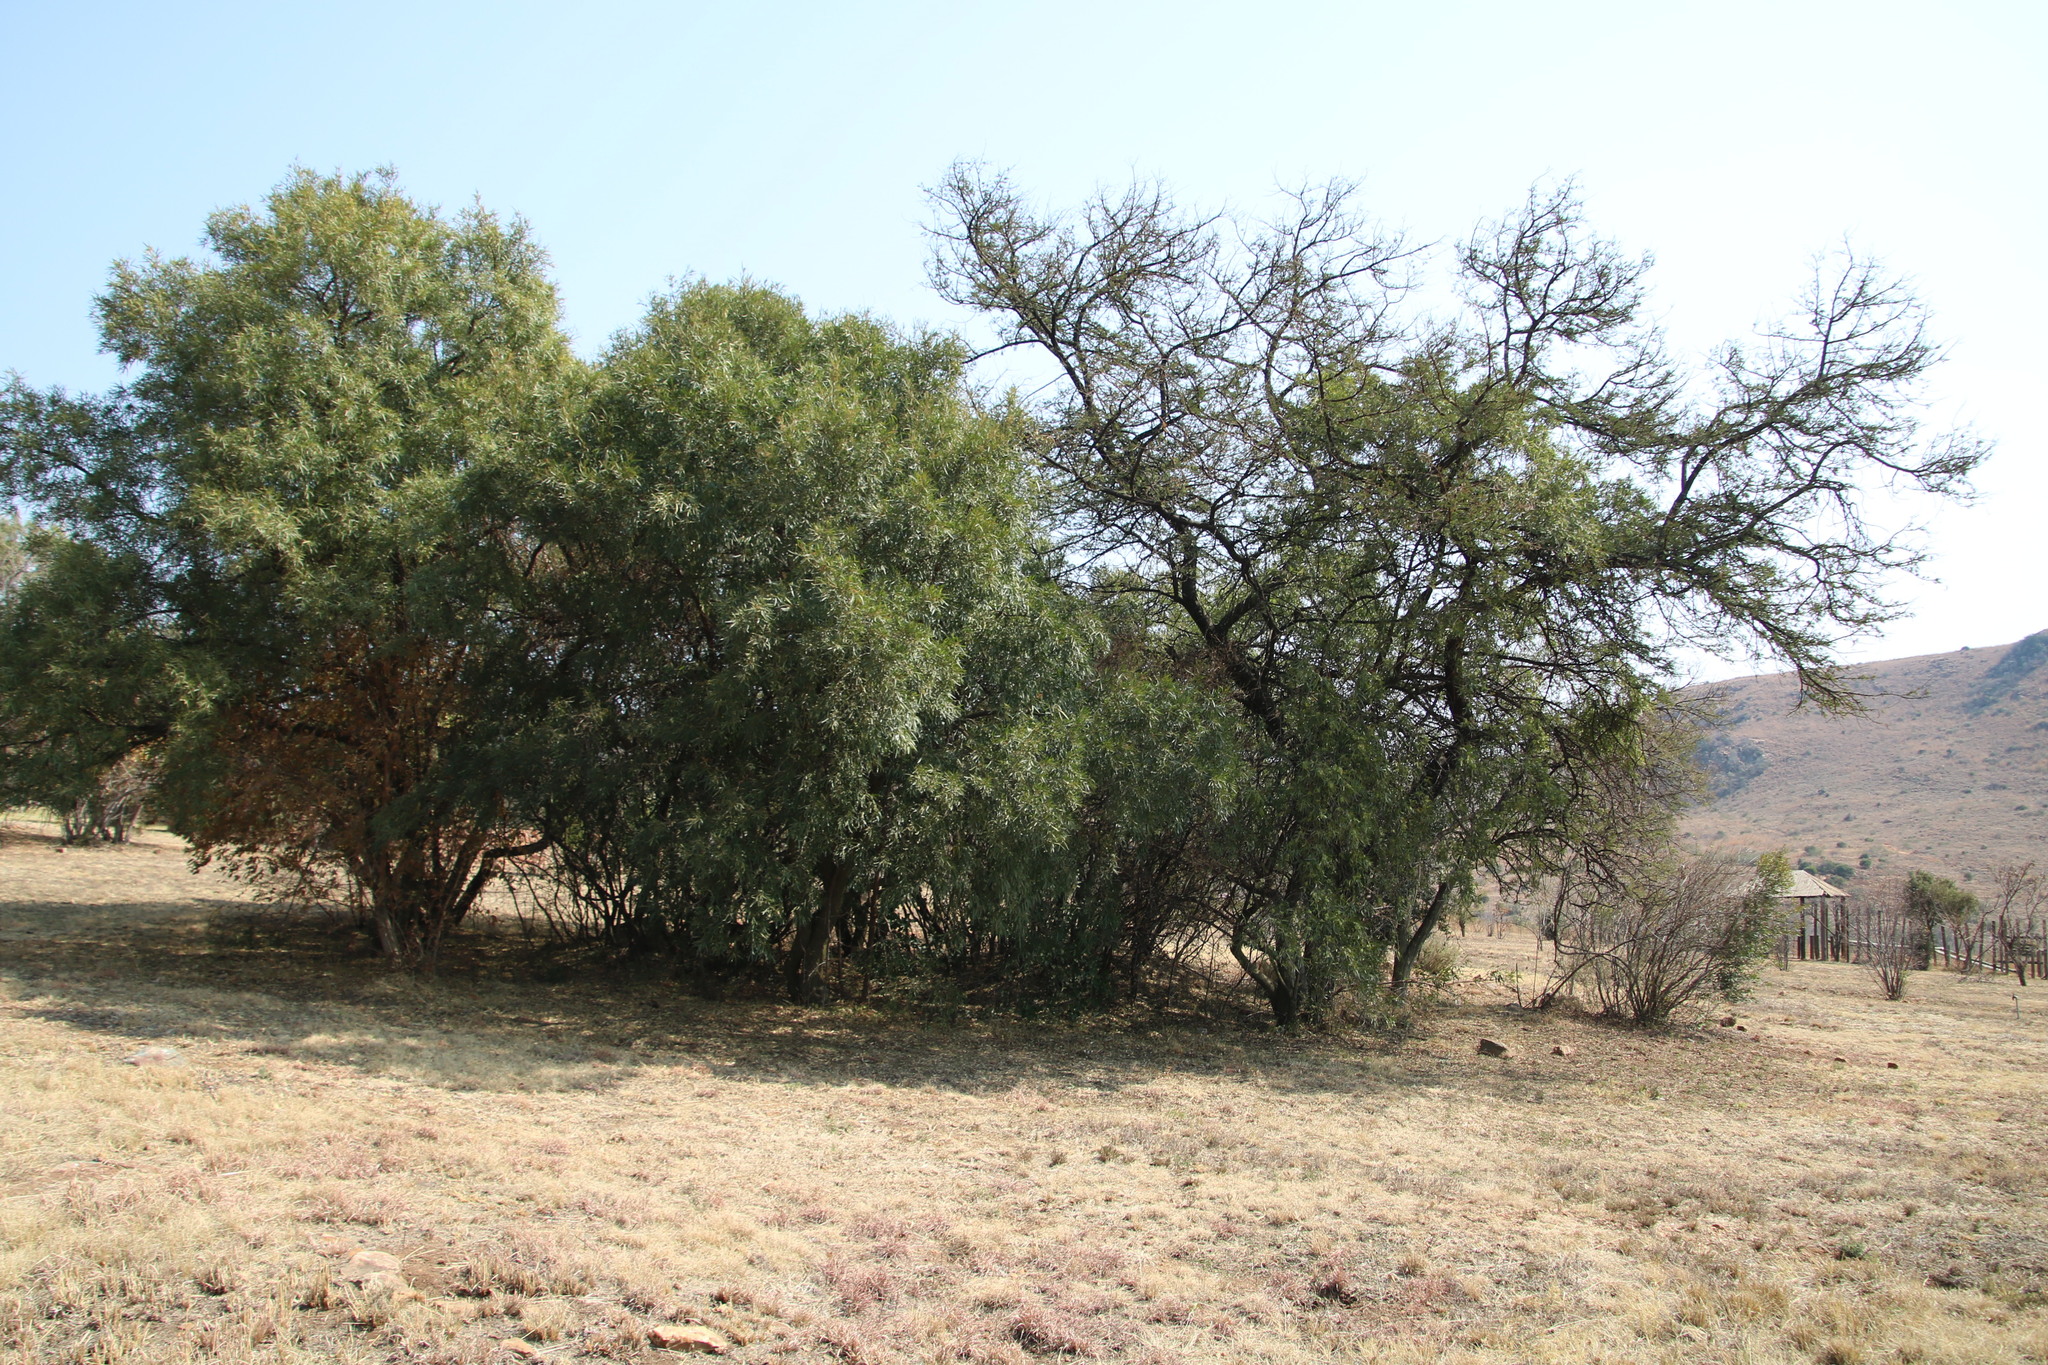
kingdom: Plantae
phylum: Tracheophyta
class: Magnoliopsida
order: Sapindales
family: Anacardiaceae
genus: Searsia
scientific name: Searsia lancea
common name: Cashew
